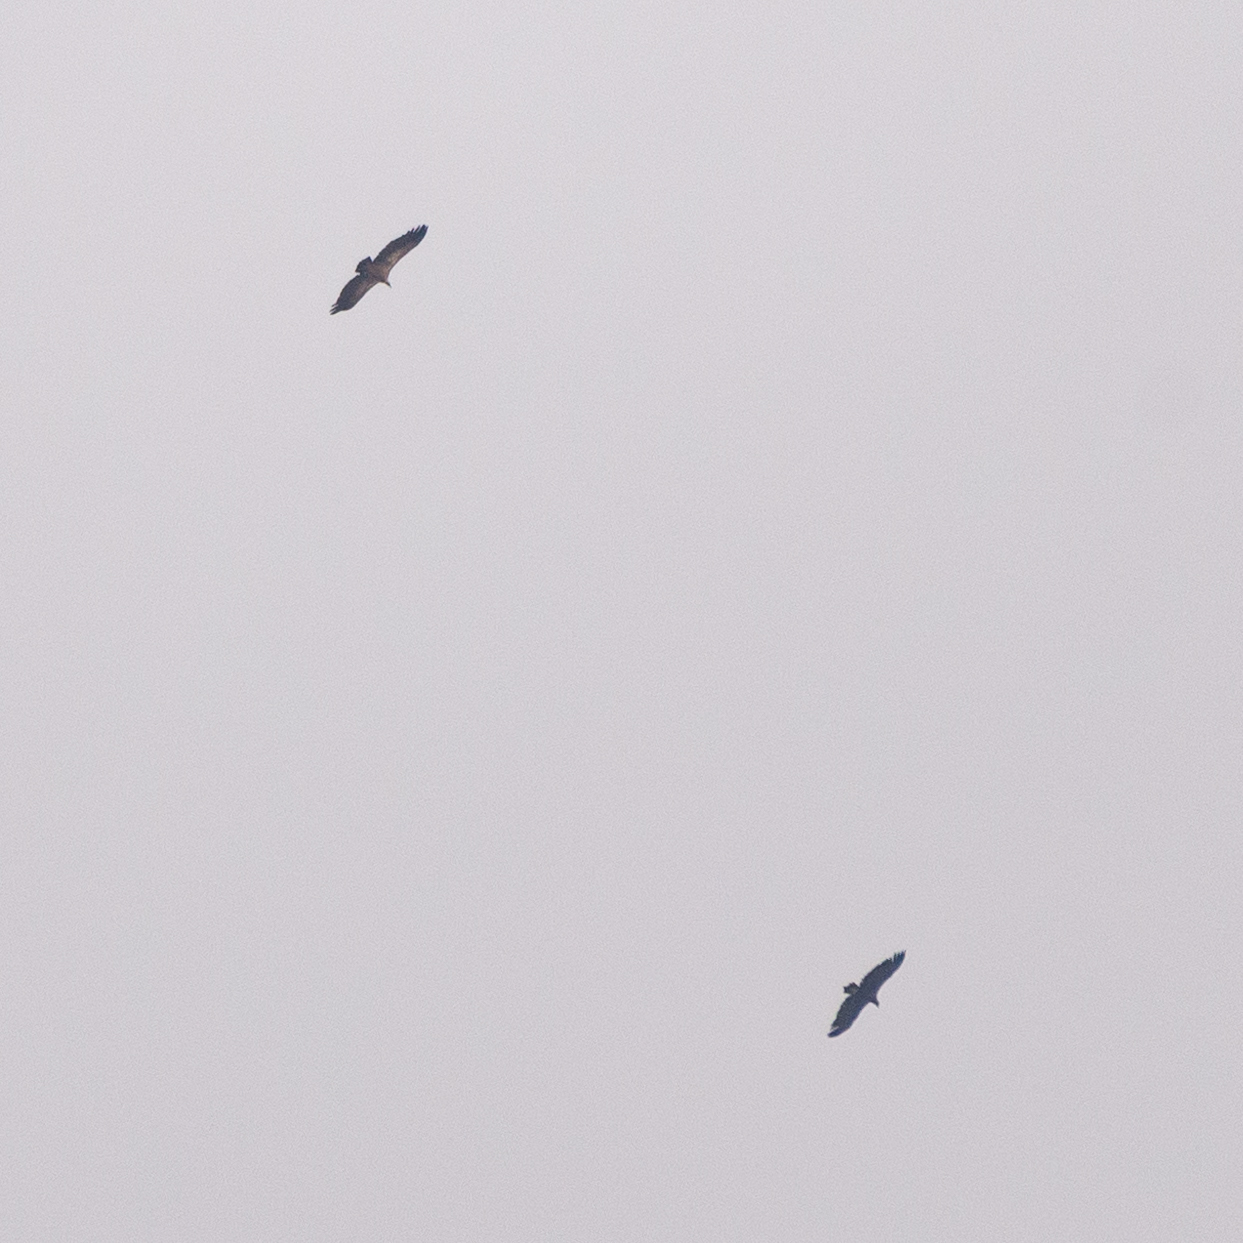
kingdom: Animalia
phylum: Chordata
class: Aves
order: Accipitriformes
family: Accipitridae
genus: Gyps
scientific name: Gyps fulvus
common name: Griffon vulture
